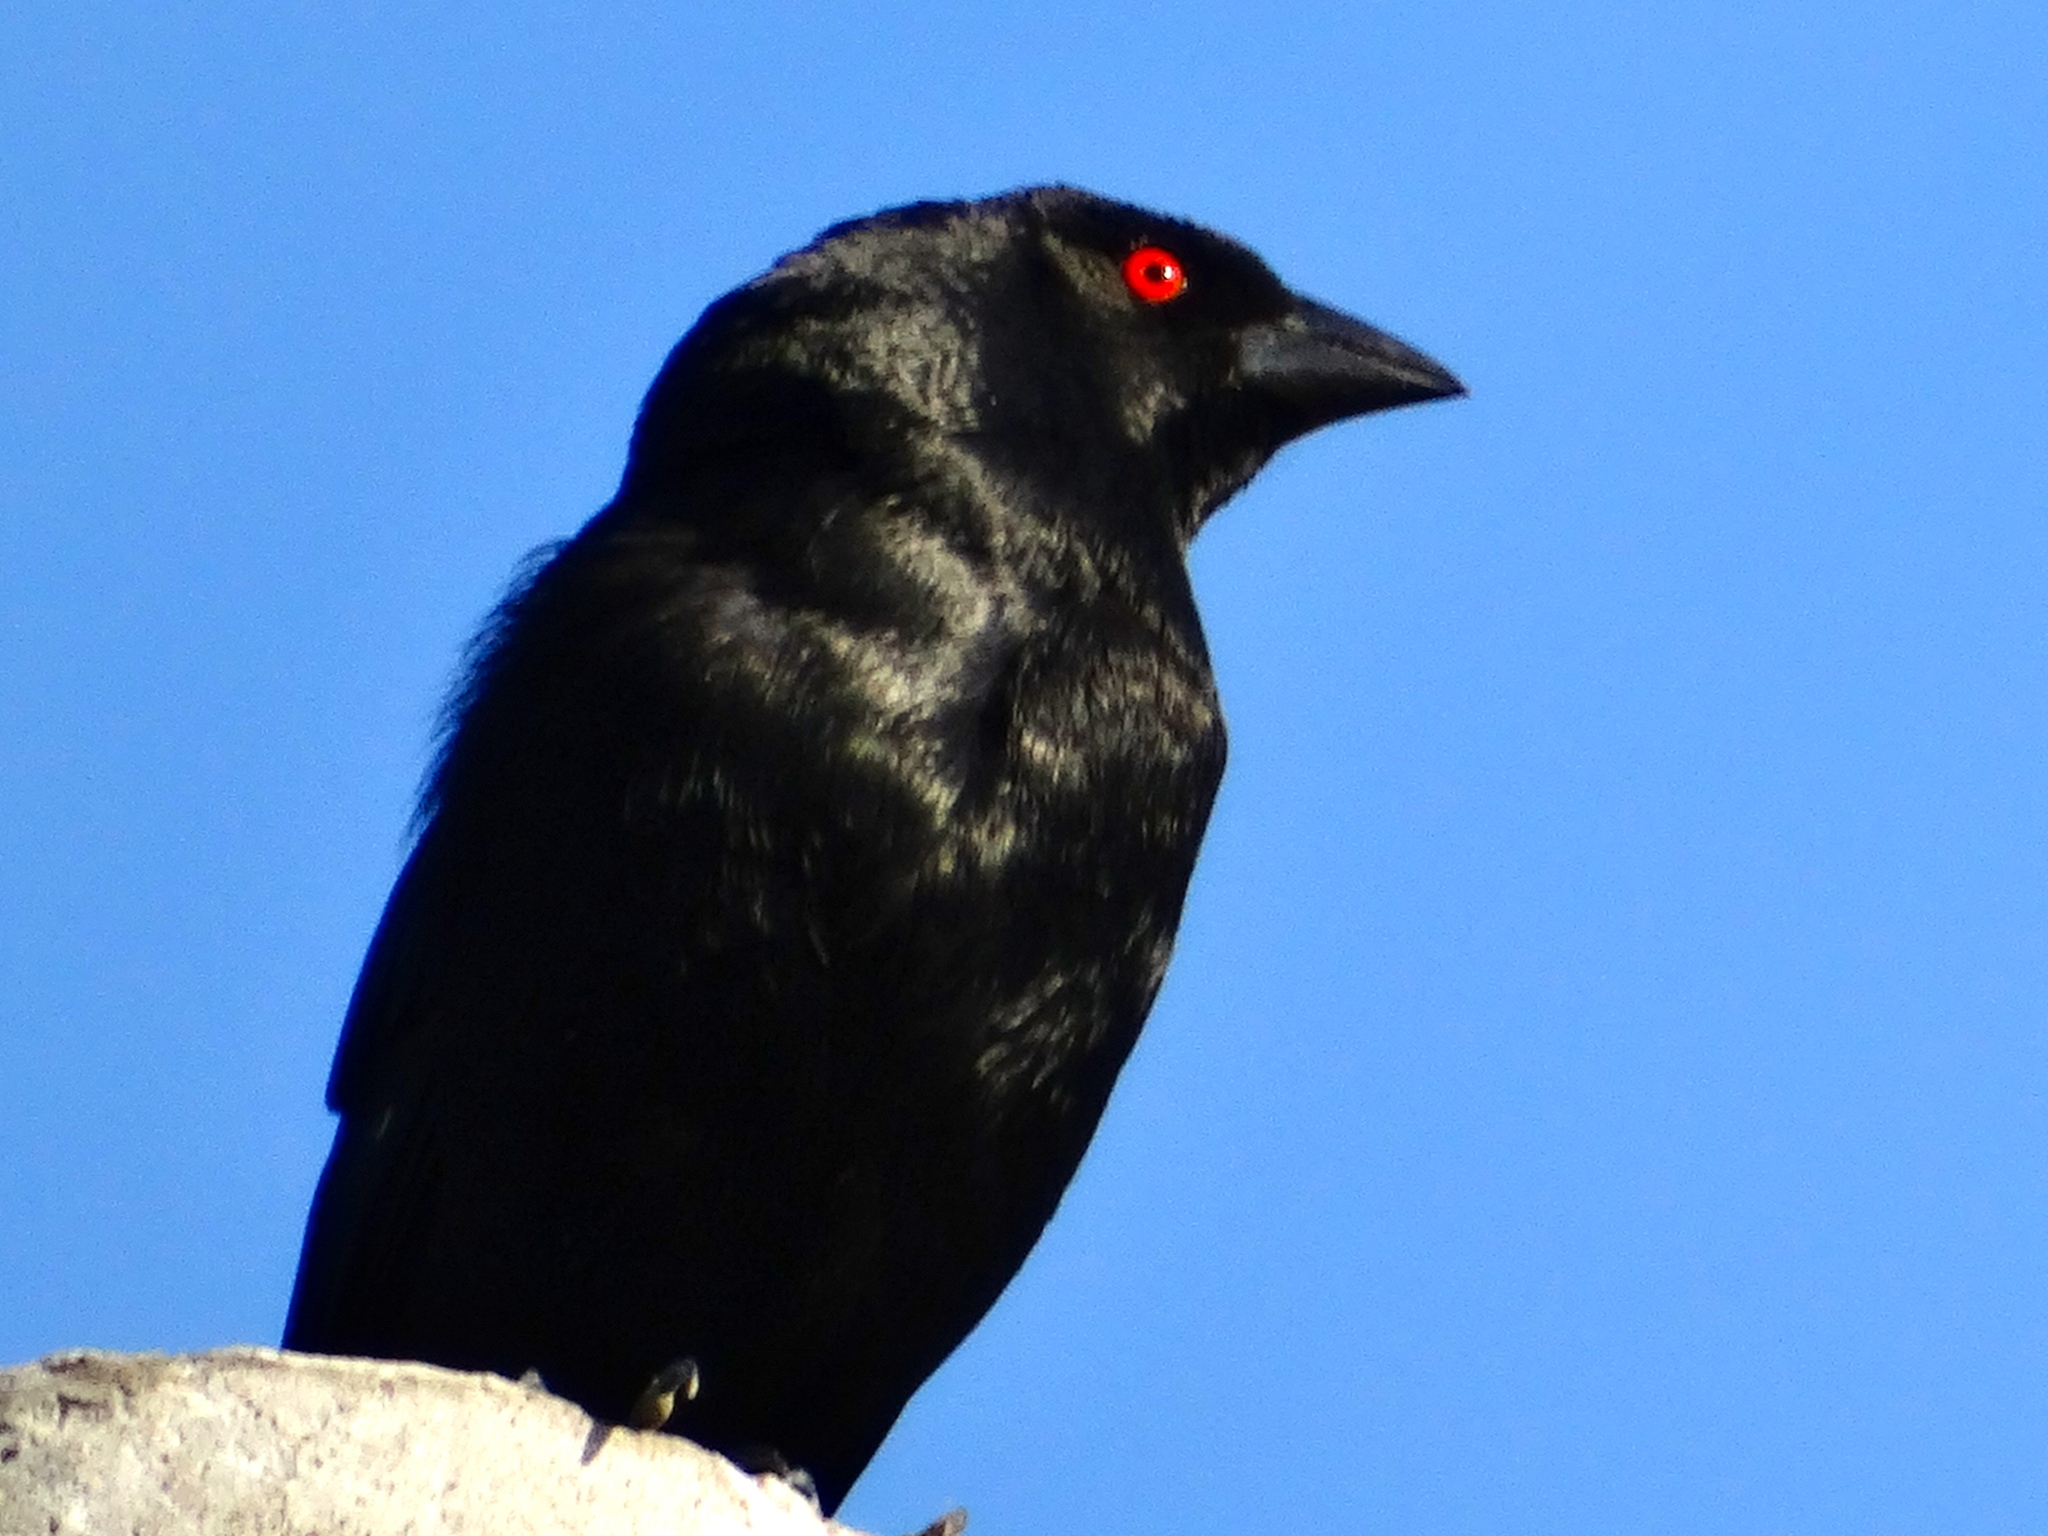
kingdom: Animalia
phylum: Chordata
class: Aves
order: Passeriformes
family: Icteridae
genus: Molothrus
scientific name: Molothrus aeneus
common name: Bronzed cowbird
